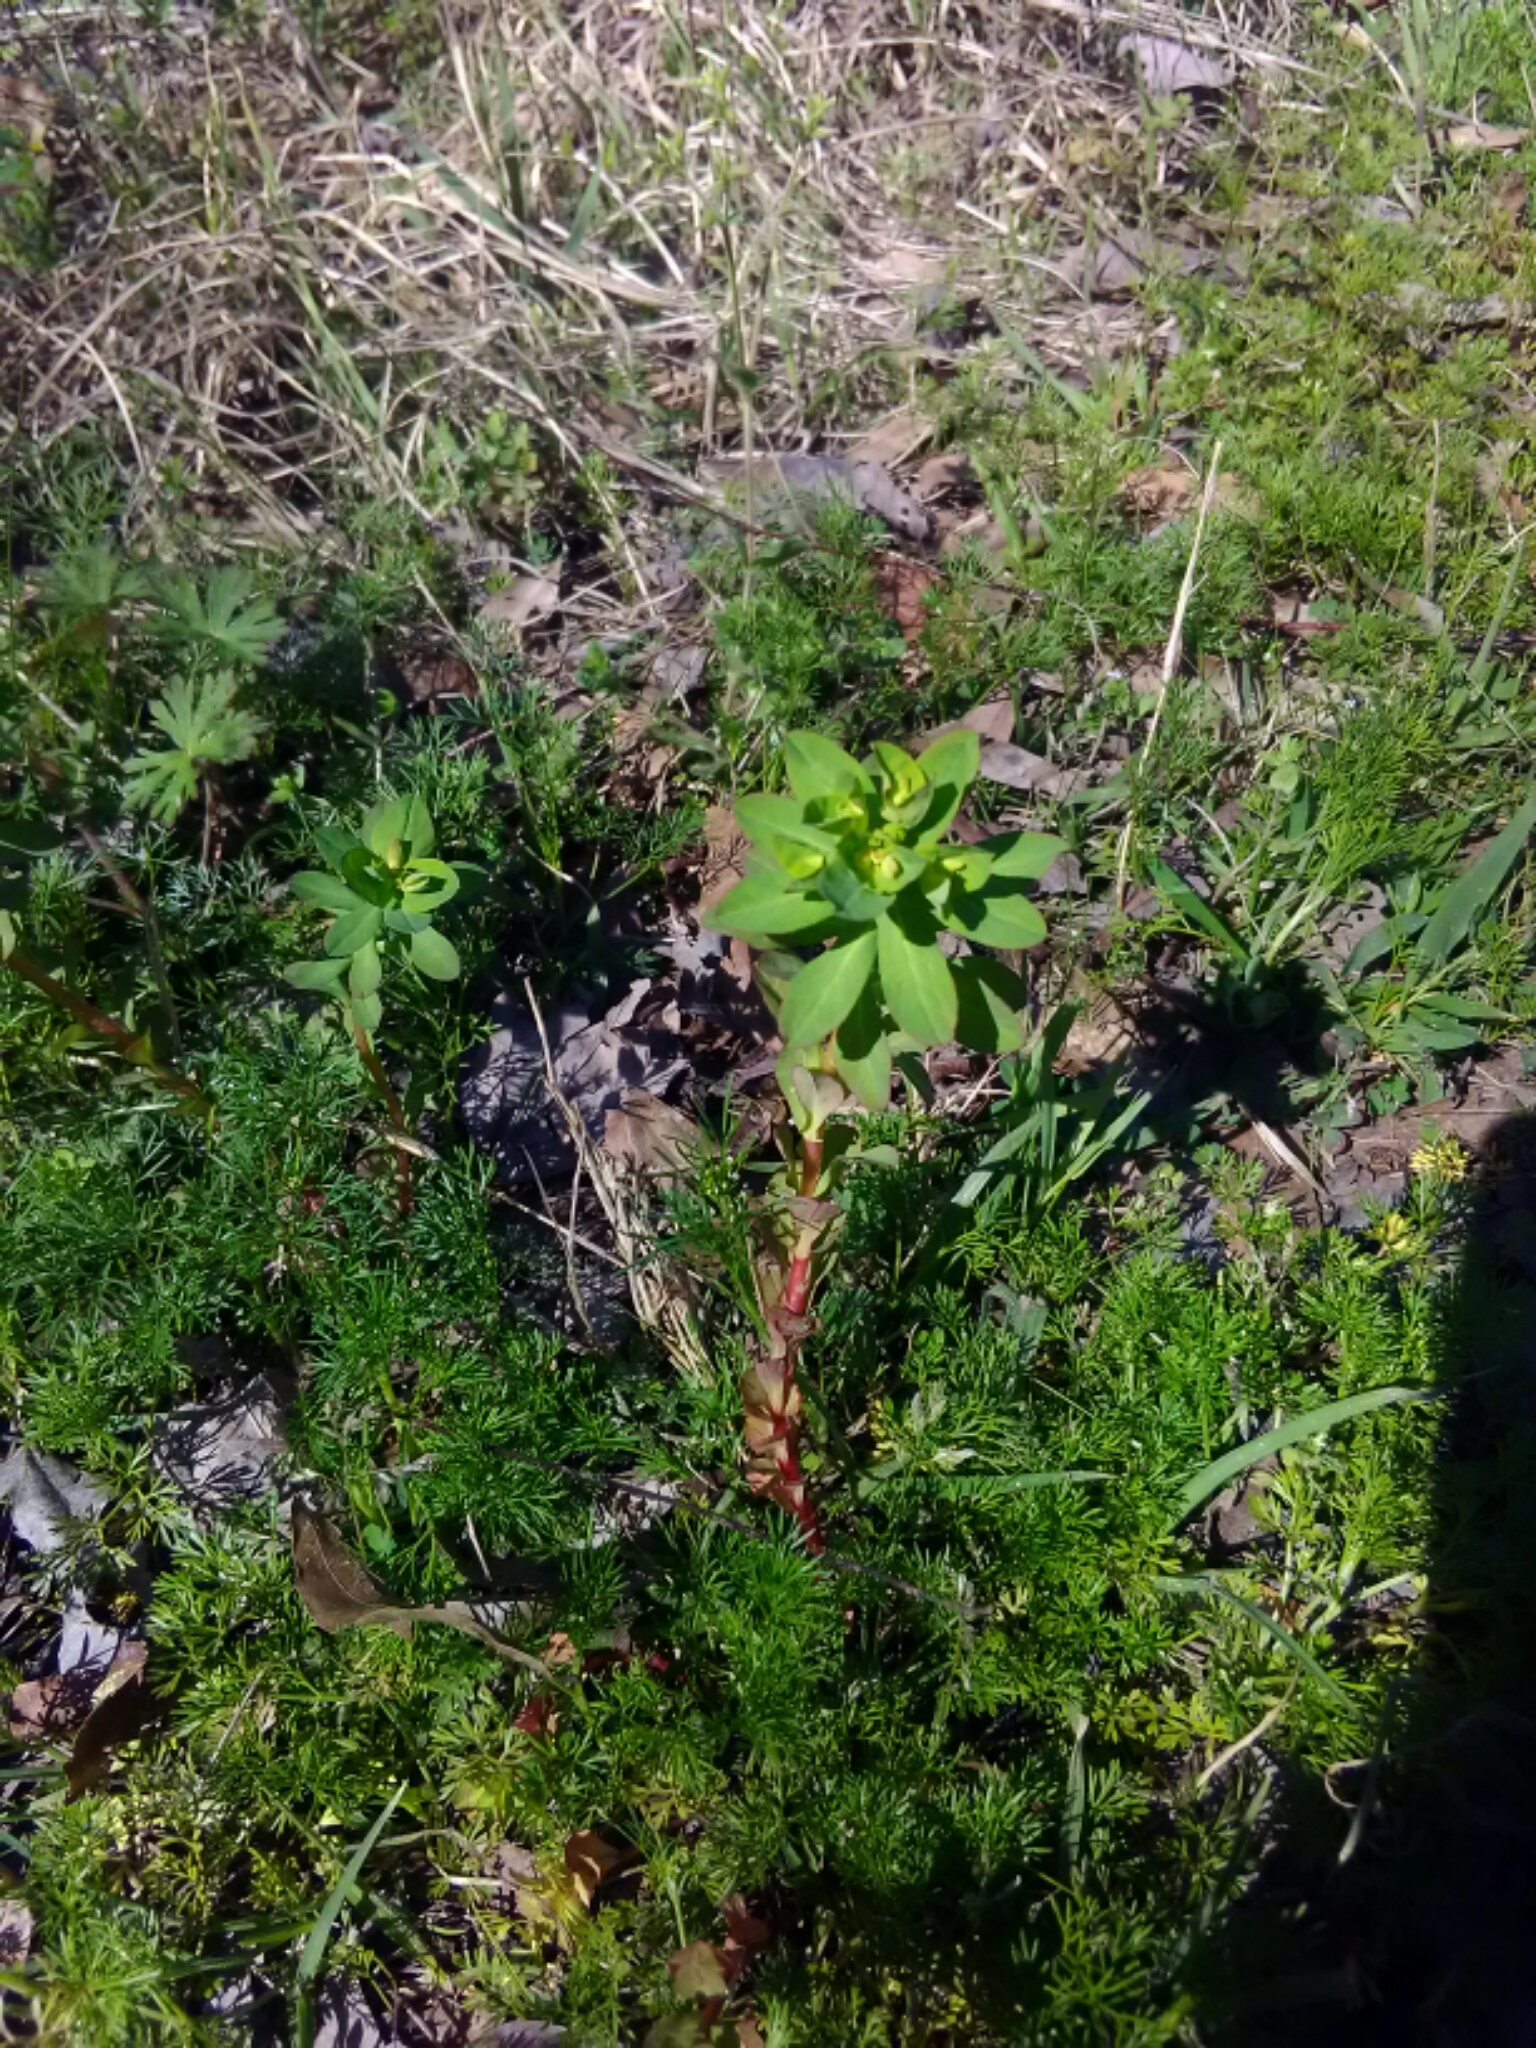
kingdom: Plantae
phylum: Tracheophyta
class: Magnoliopsida
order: Malpighiales
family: Euphorbiaceae
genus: Euphorbia
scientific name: Euphorbia helioscopia
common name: Sun spurge
